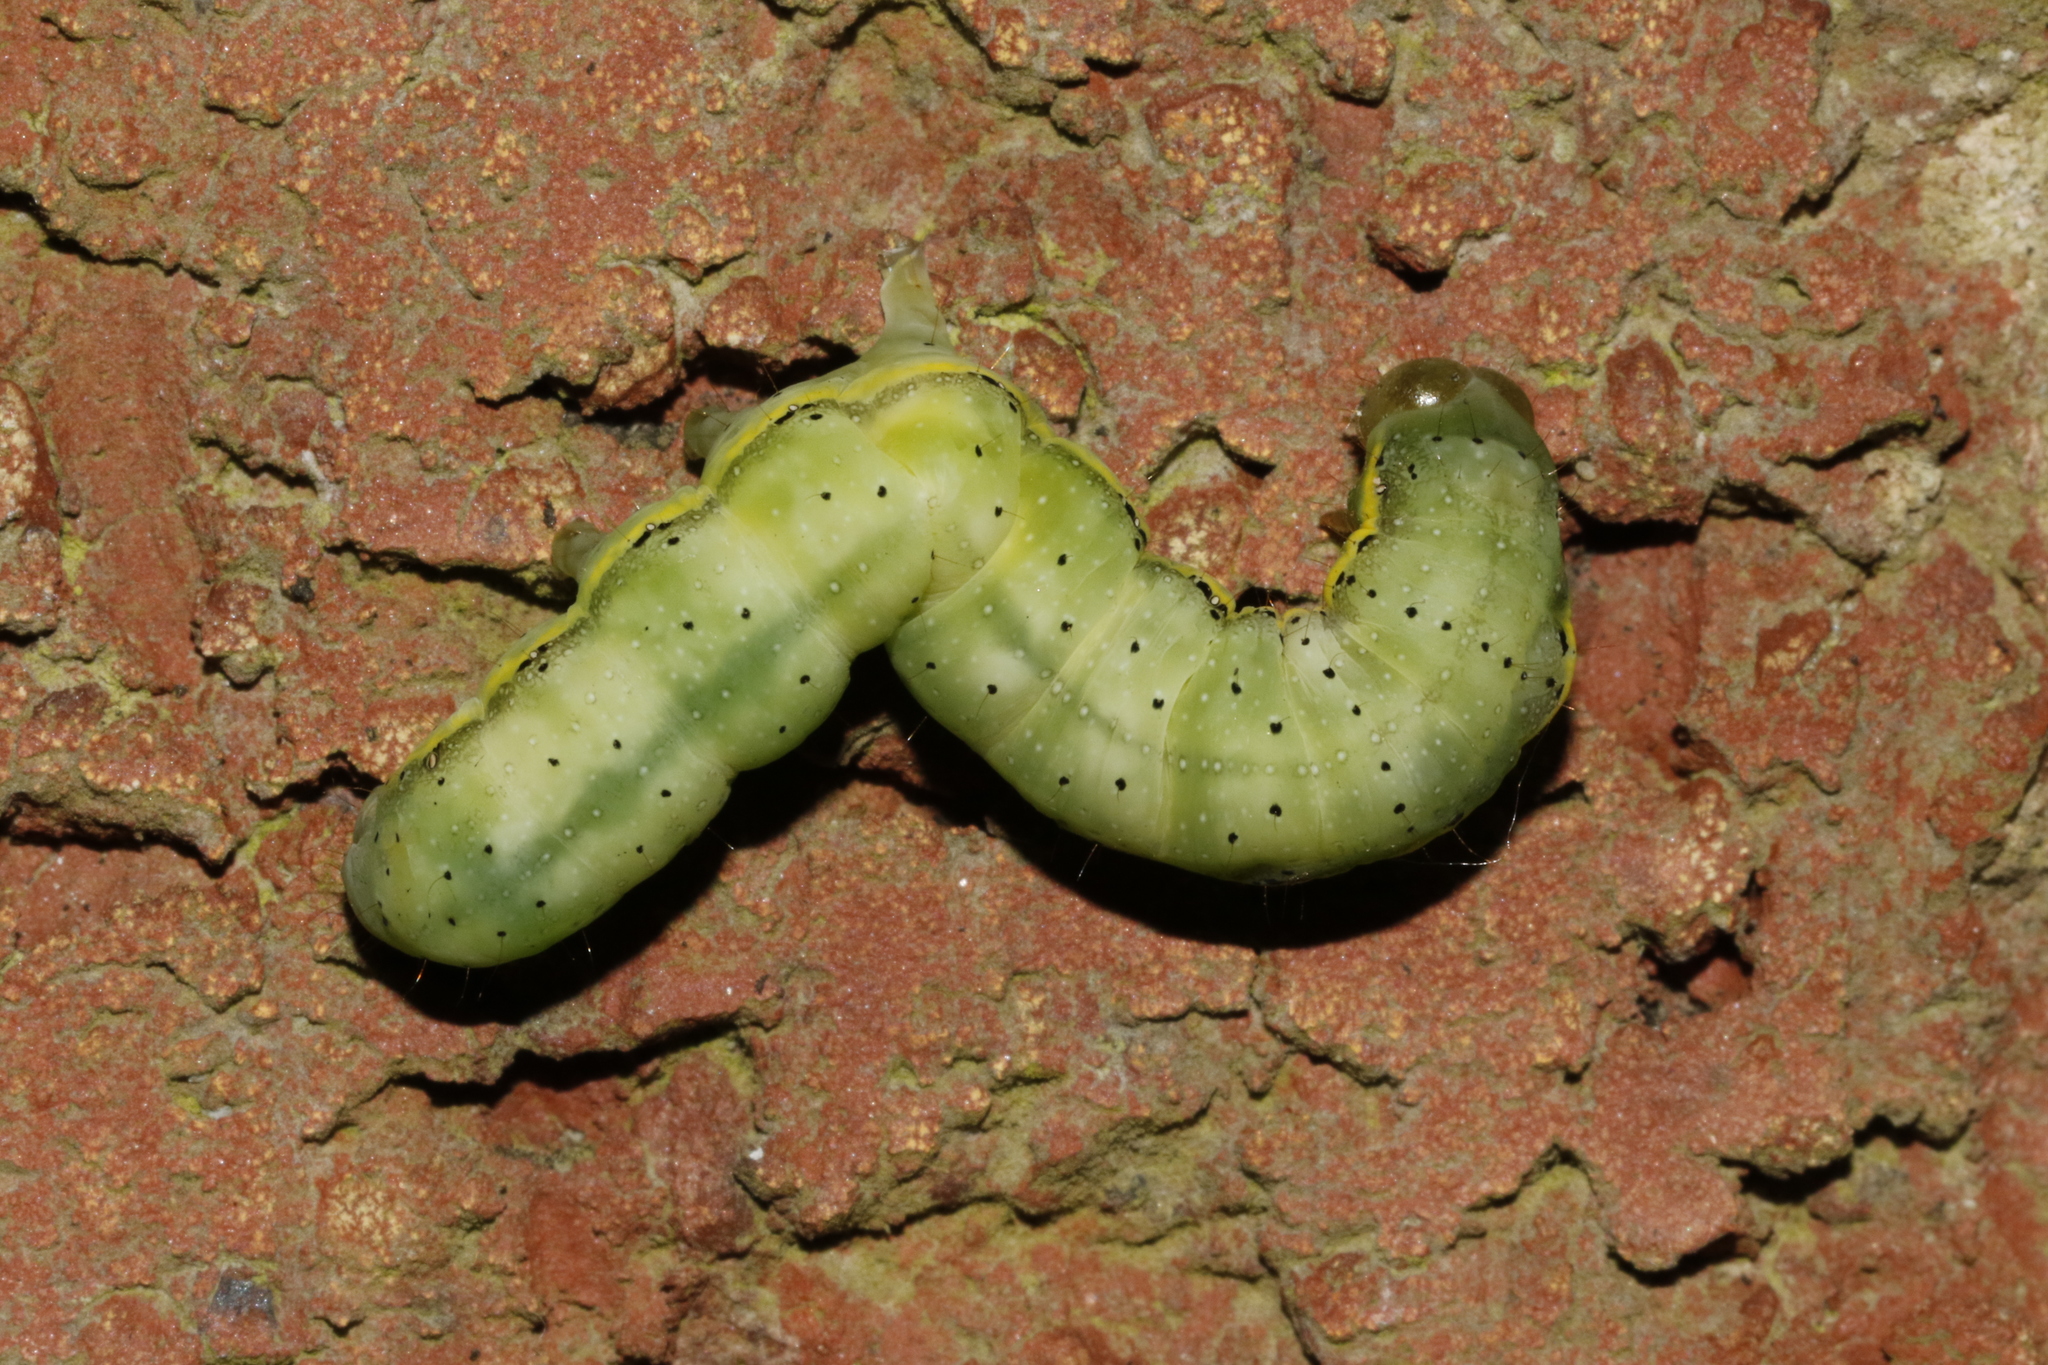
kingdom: Animalia
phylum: Arthropoda
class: Insecta
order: Lepidoptera
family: Noctuidae
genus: Lacanobia
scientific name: Lacanobia oleracea
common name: Bright-line brown-eye
